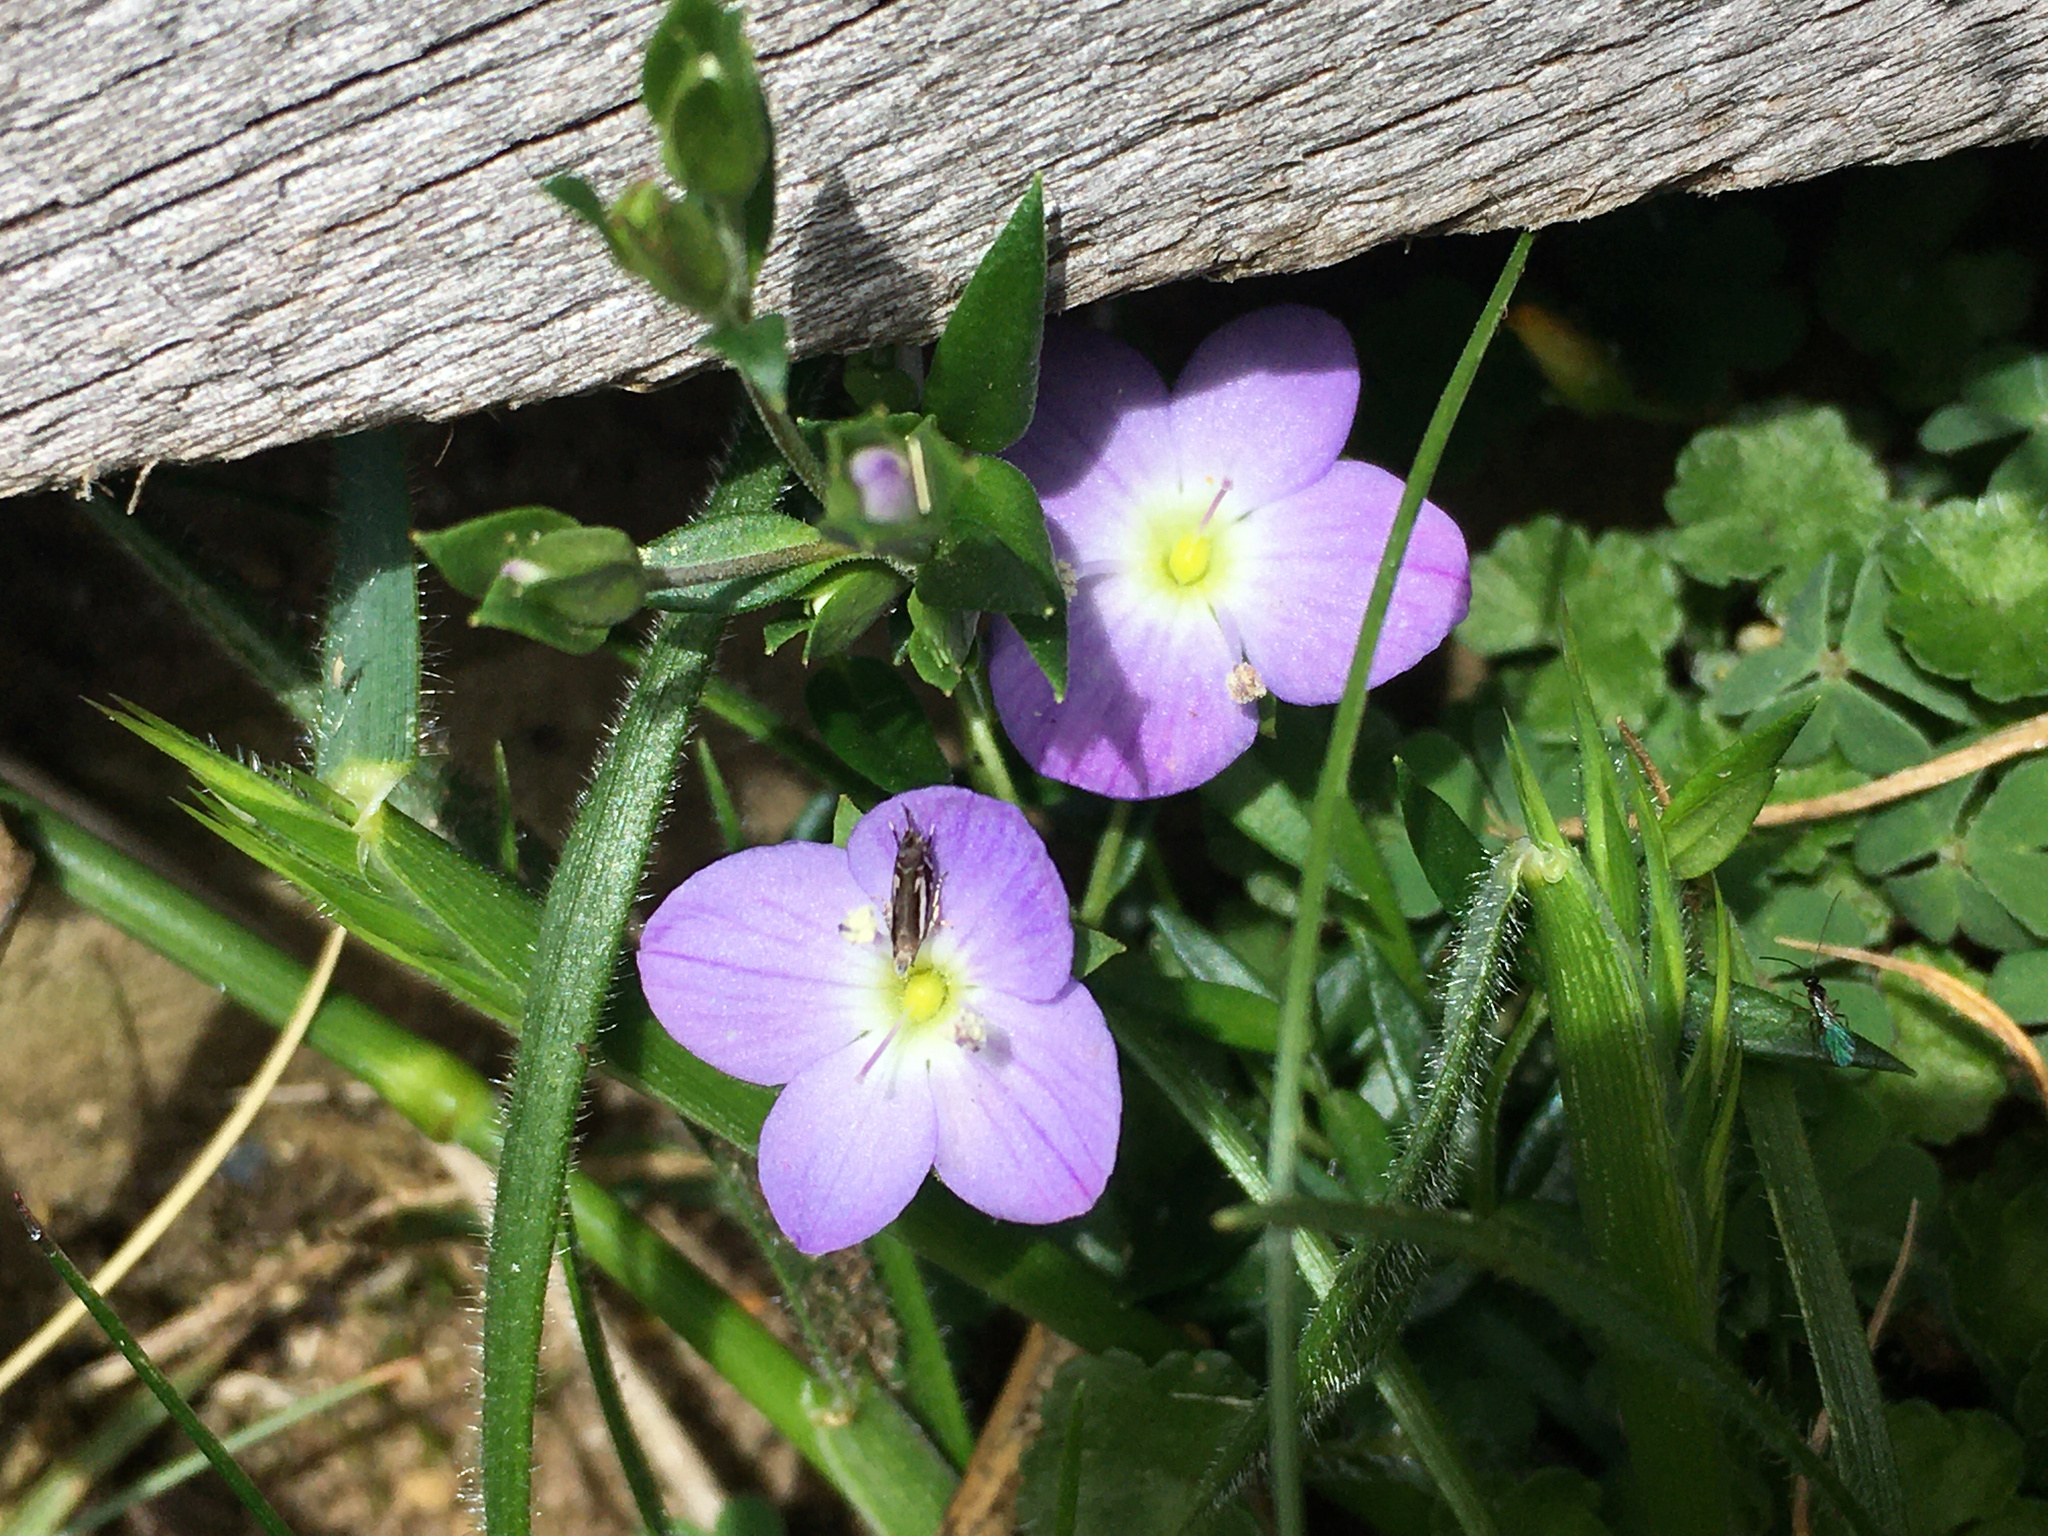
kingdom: Plantae
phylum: Tracheophyta
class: Magnoliopsida
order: Lamiales
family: Plantaginaceae
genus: Veronica
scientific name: Veronica gracilis
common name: Slender speedwell
